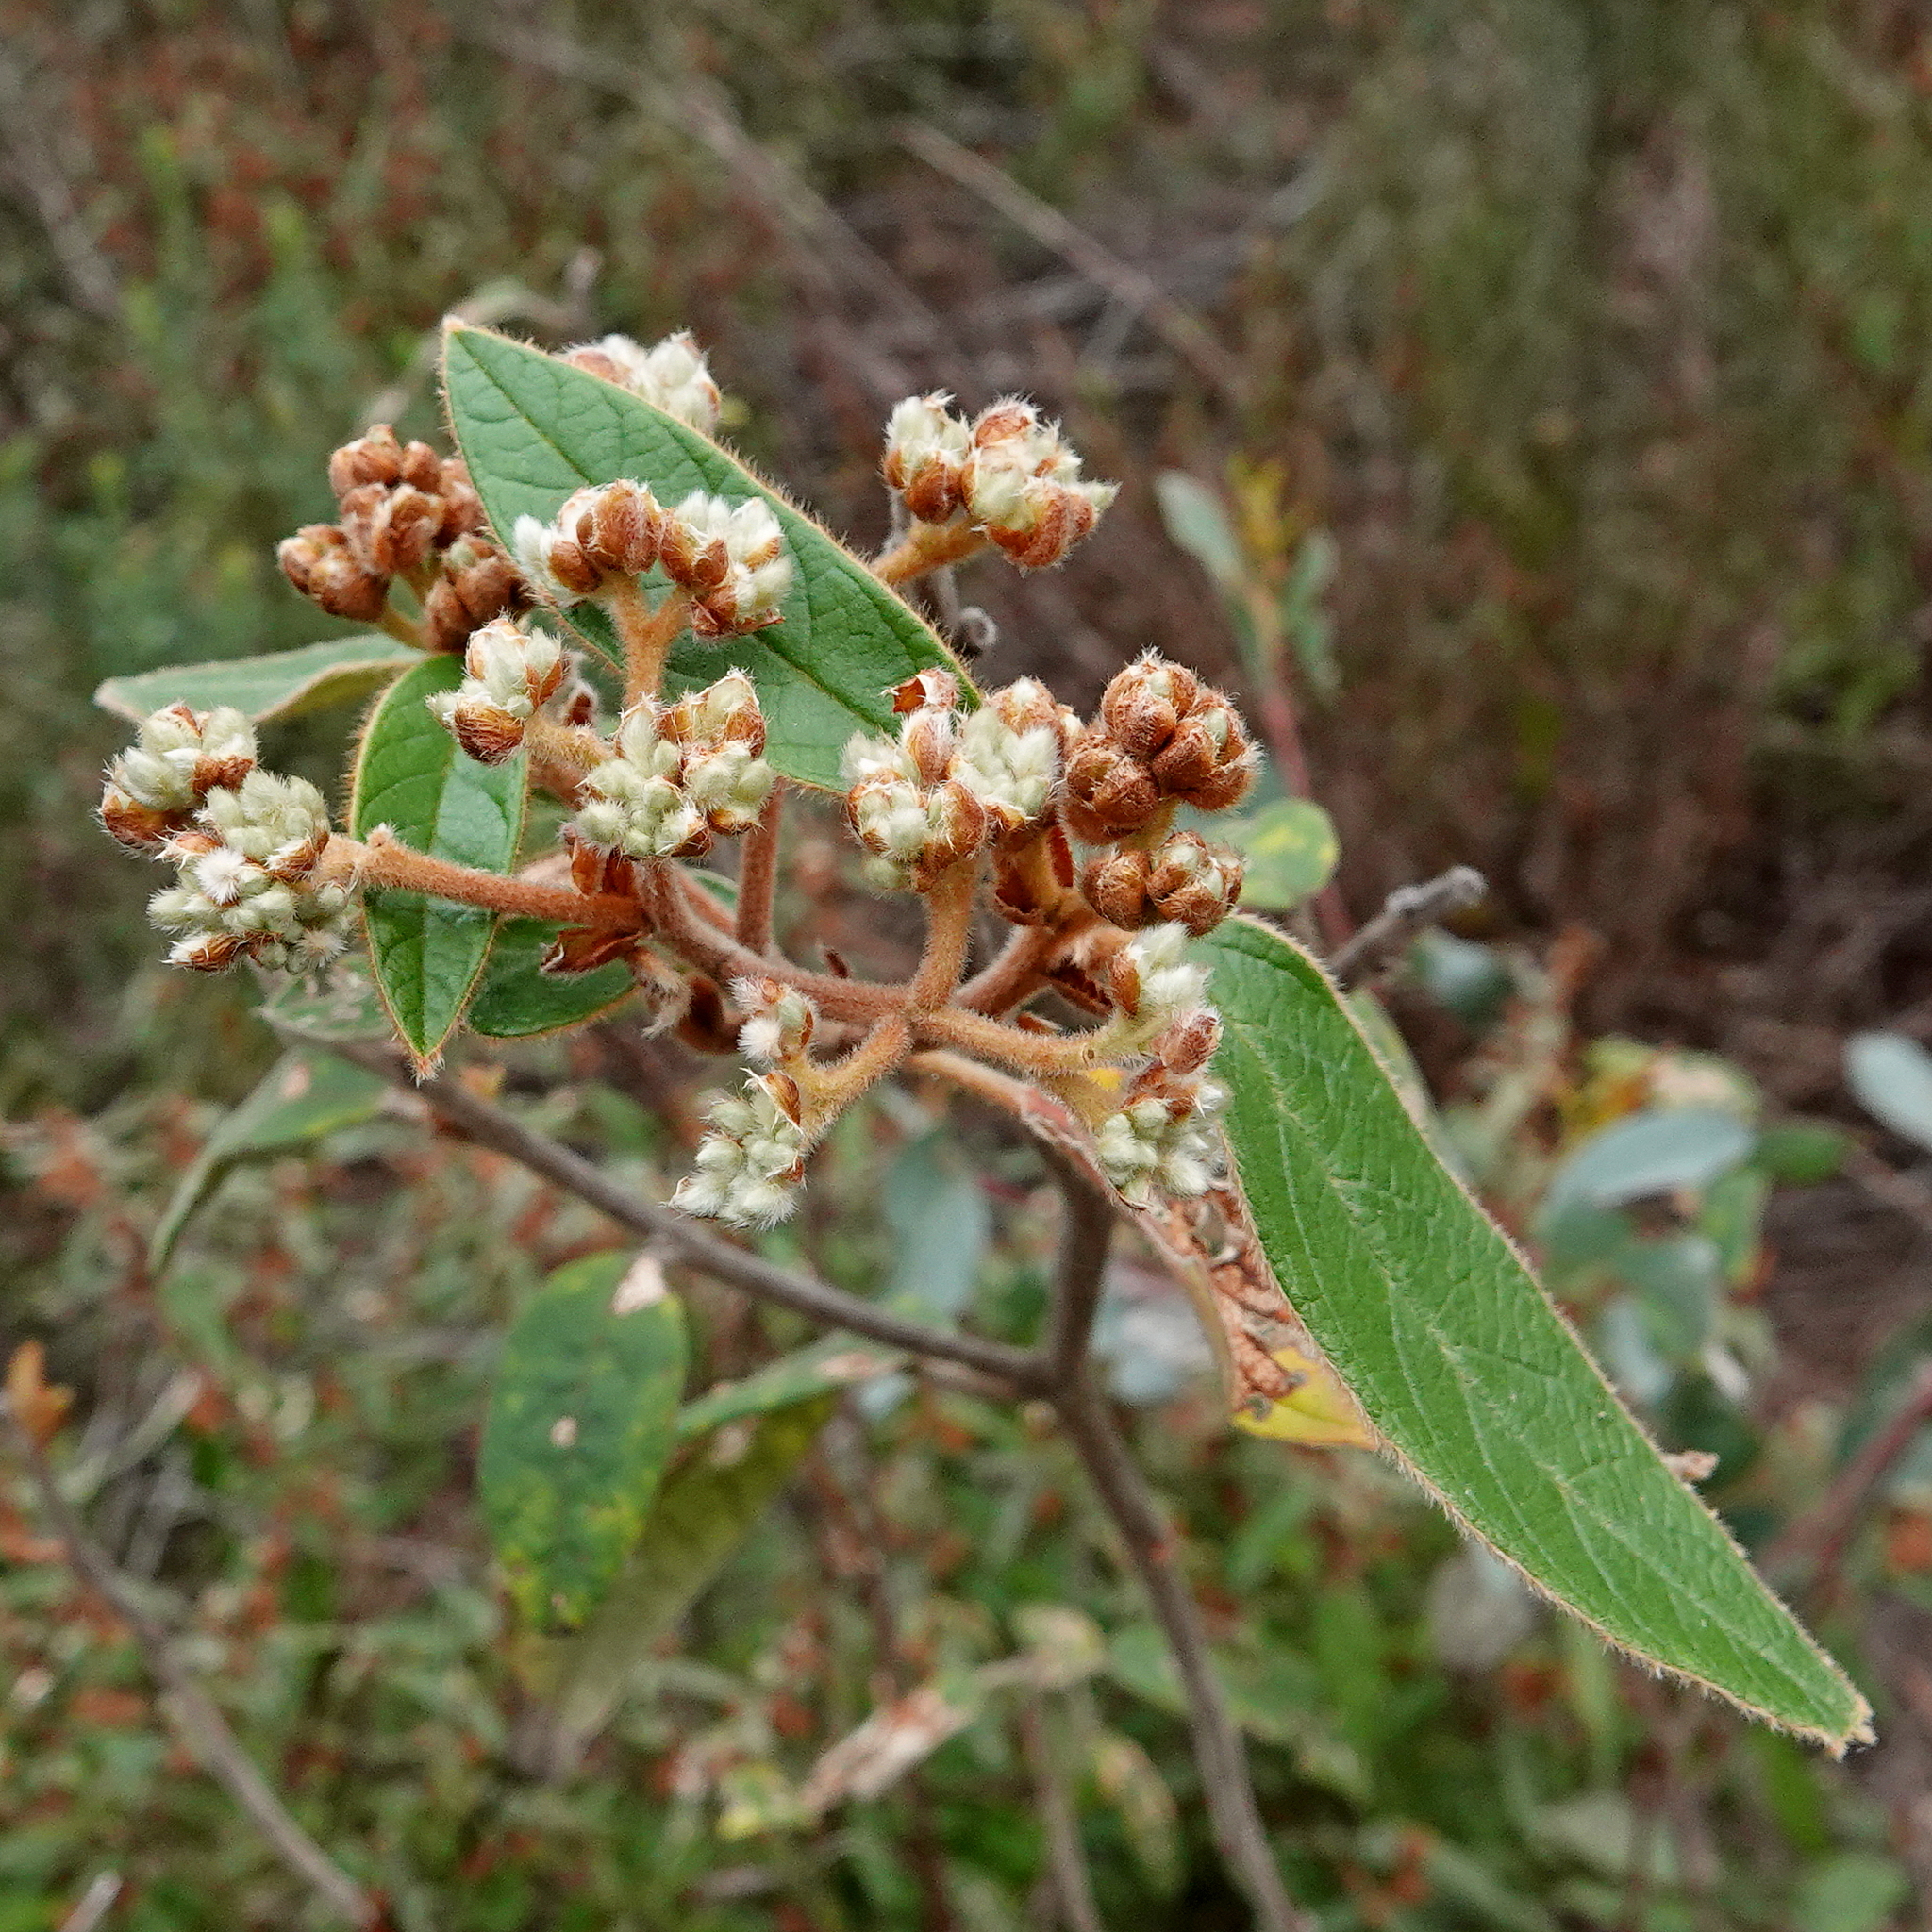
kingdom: Plantae
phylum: Tracheophyta
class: Magnoliopsida
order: Rosales
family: Rhamnaceae
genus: Pomaderris
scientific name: Pomaderris lanigera
